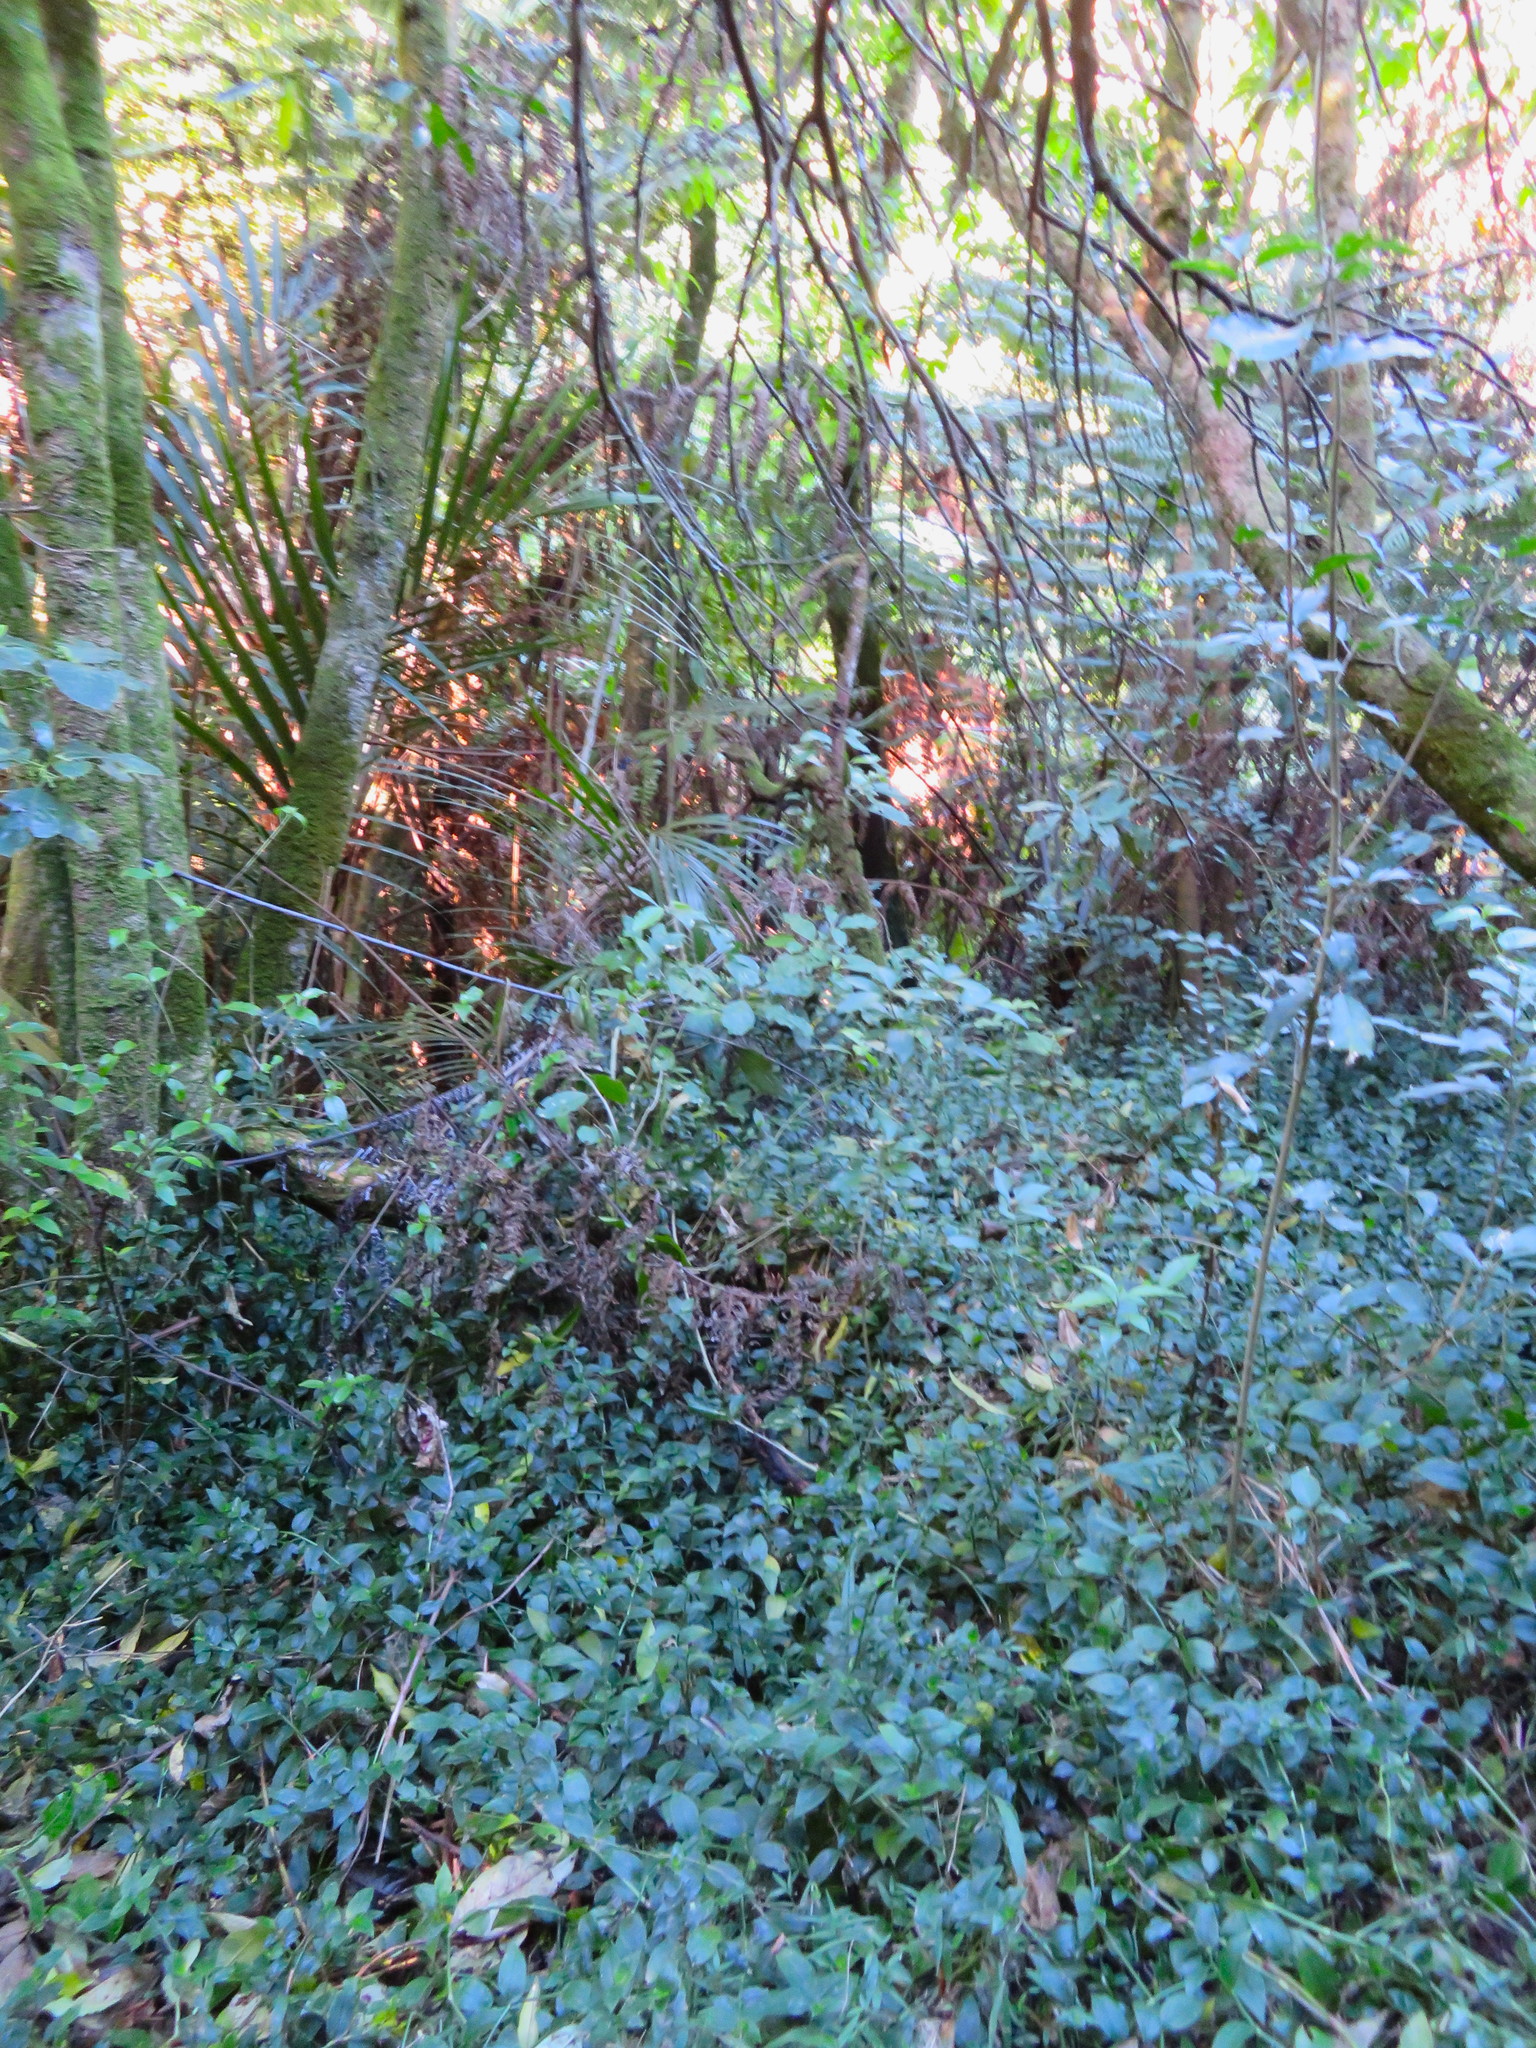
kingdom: Plantae
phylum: Tracheophyta
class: Magnoliopsida
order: Gentianales
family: Loganiaceae
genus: Geniostoma
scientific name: Geniostoma ligustrifolium
